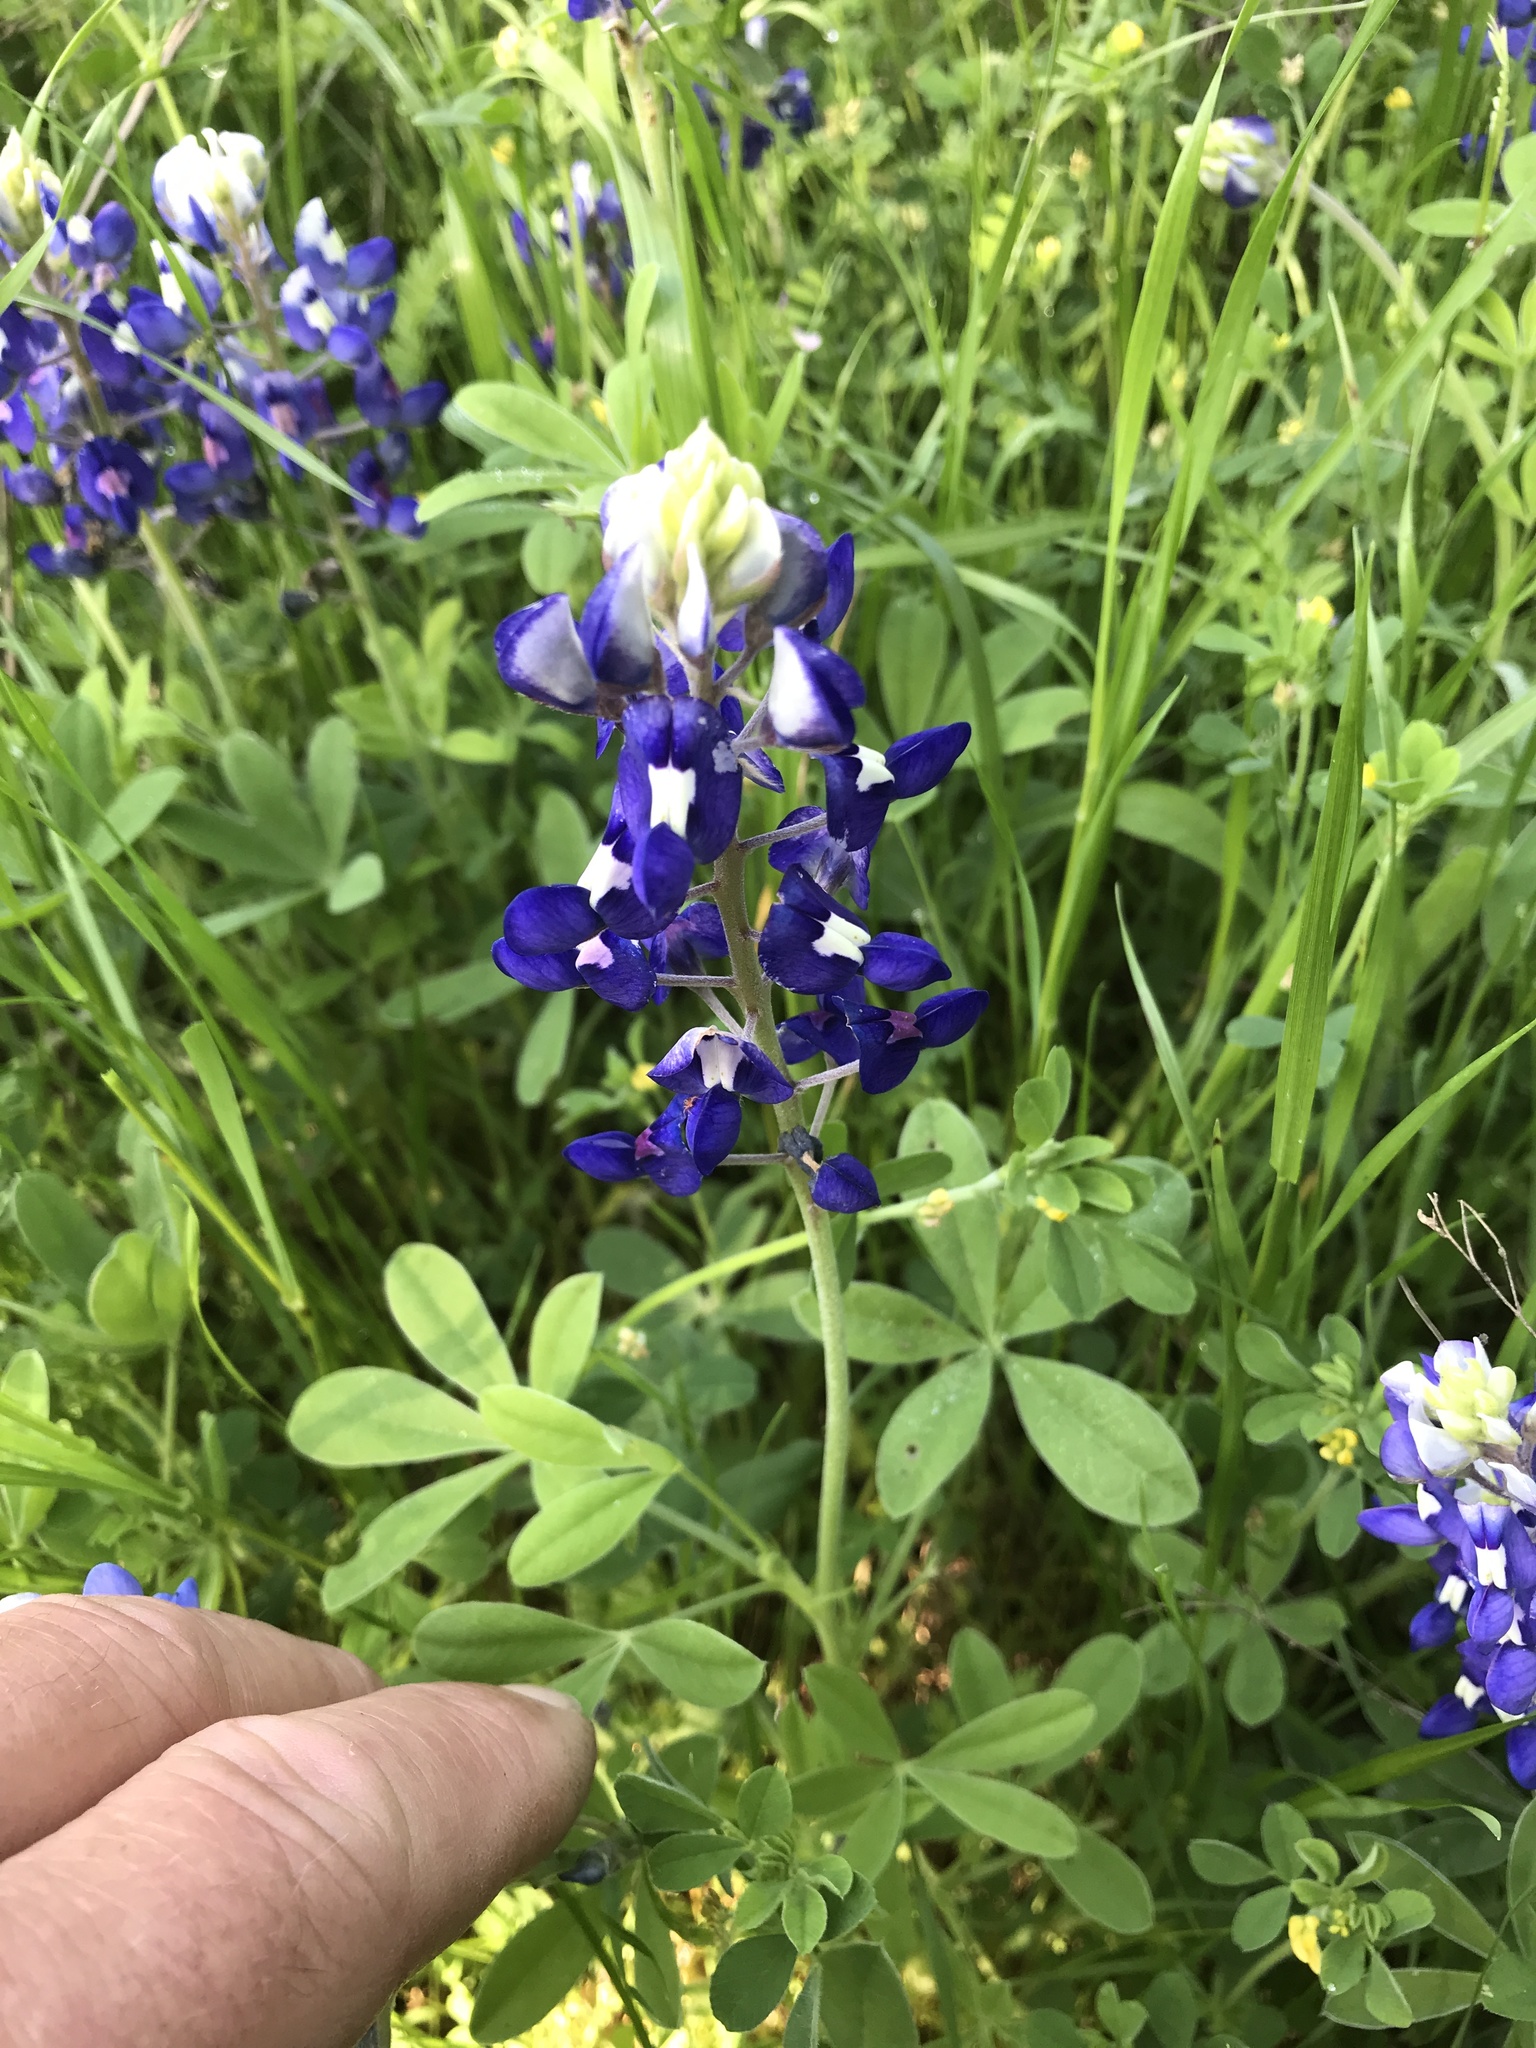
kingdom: Plantae
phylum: Tracheophyta
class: Magnoliopsida
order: Fabales
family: Fabaceae
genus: Lupinus
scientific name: Lupinus texensis
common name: Texas bluebonnet
